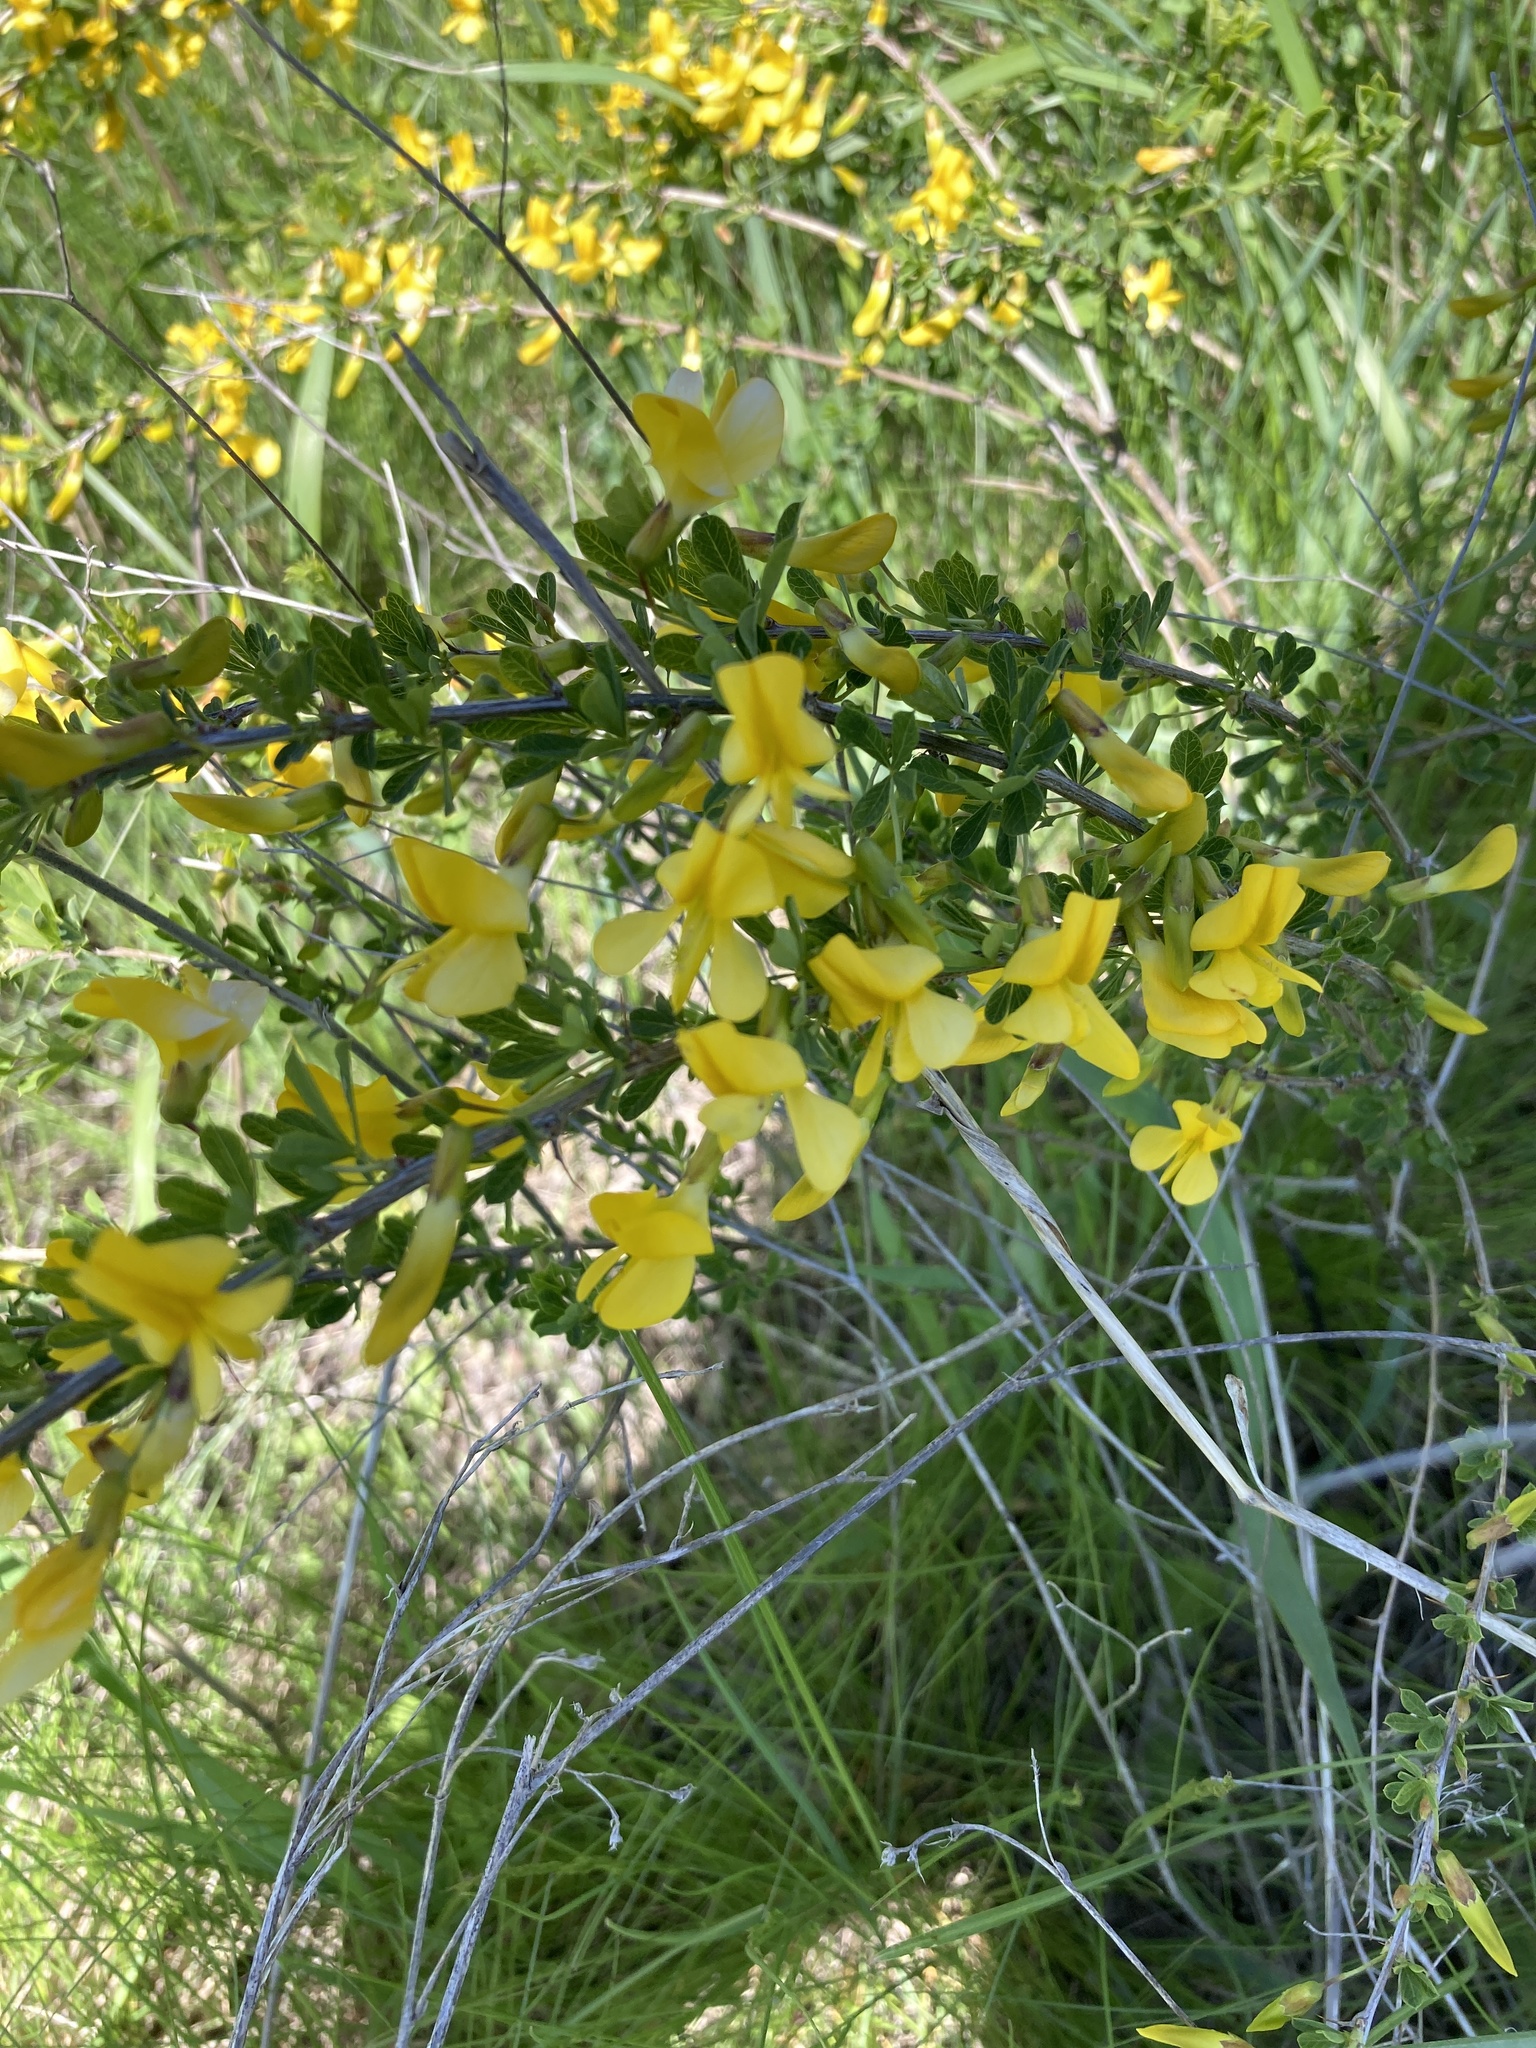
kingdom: Plantae
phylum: Tracheophyta
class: Magnoliopsida
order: Fabales
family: Fabaceae
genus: Chamaecytisus
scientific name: Chamaecytisus ruthenicus
